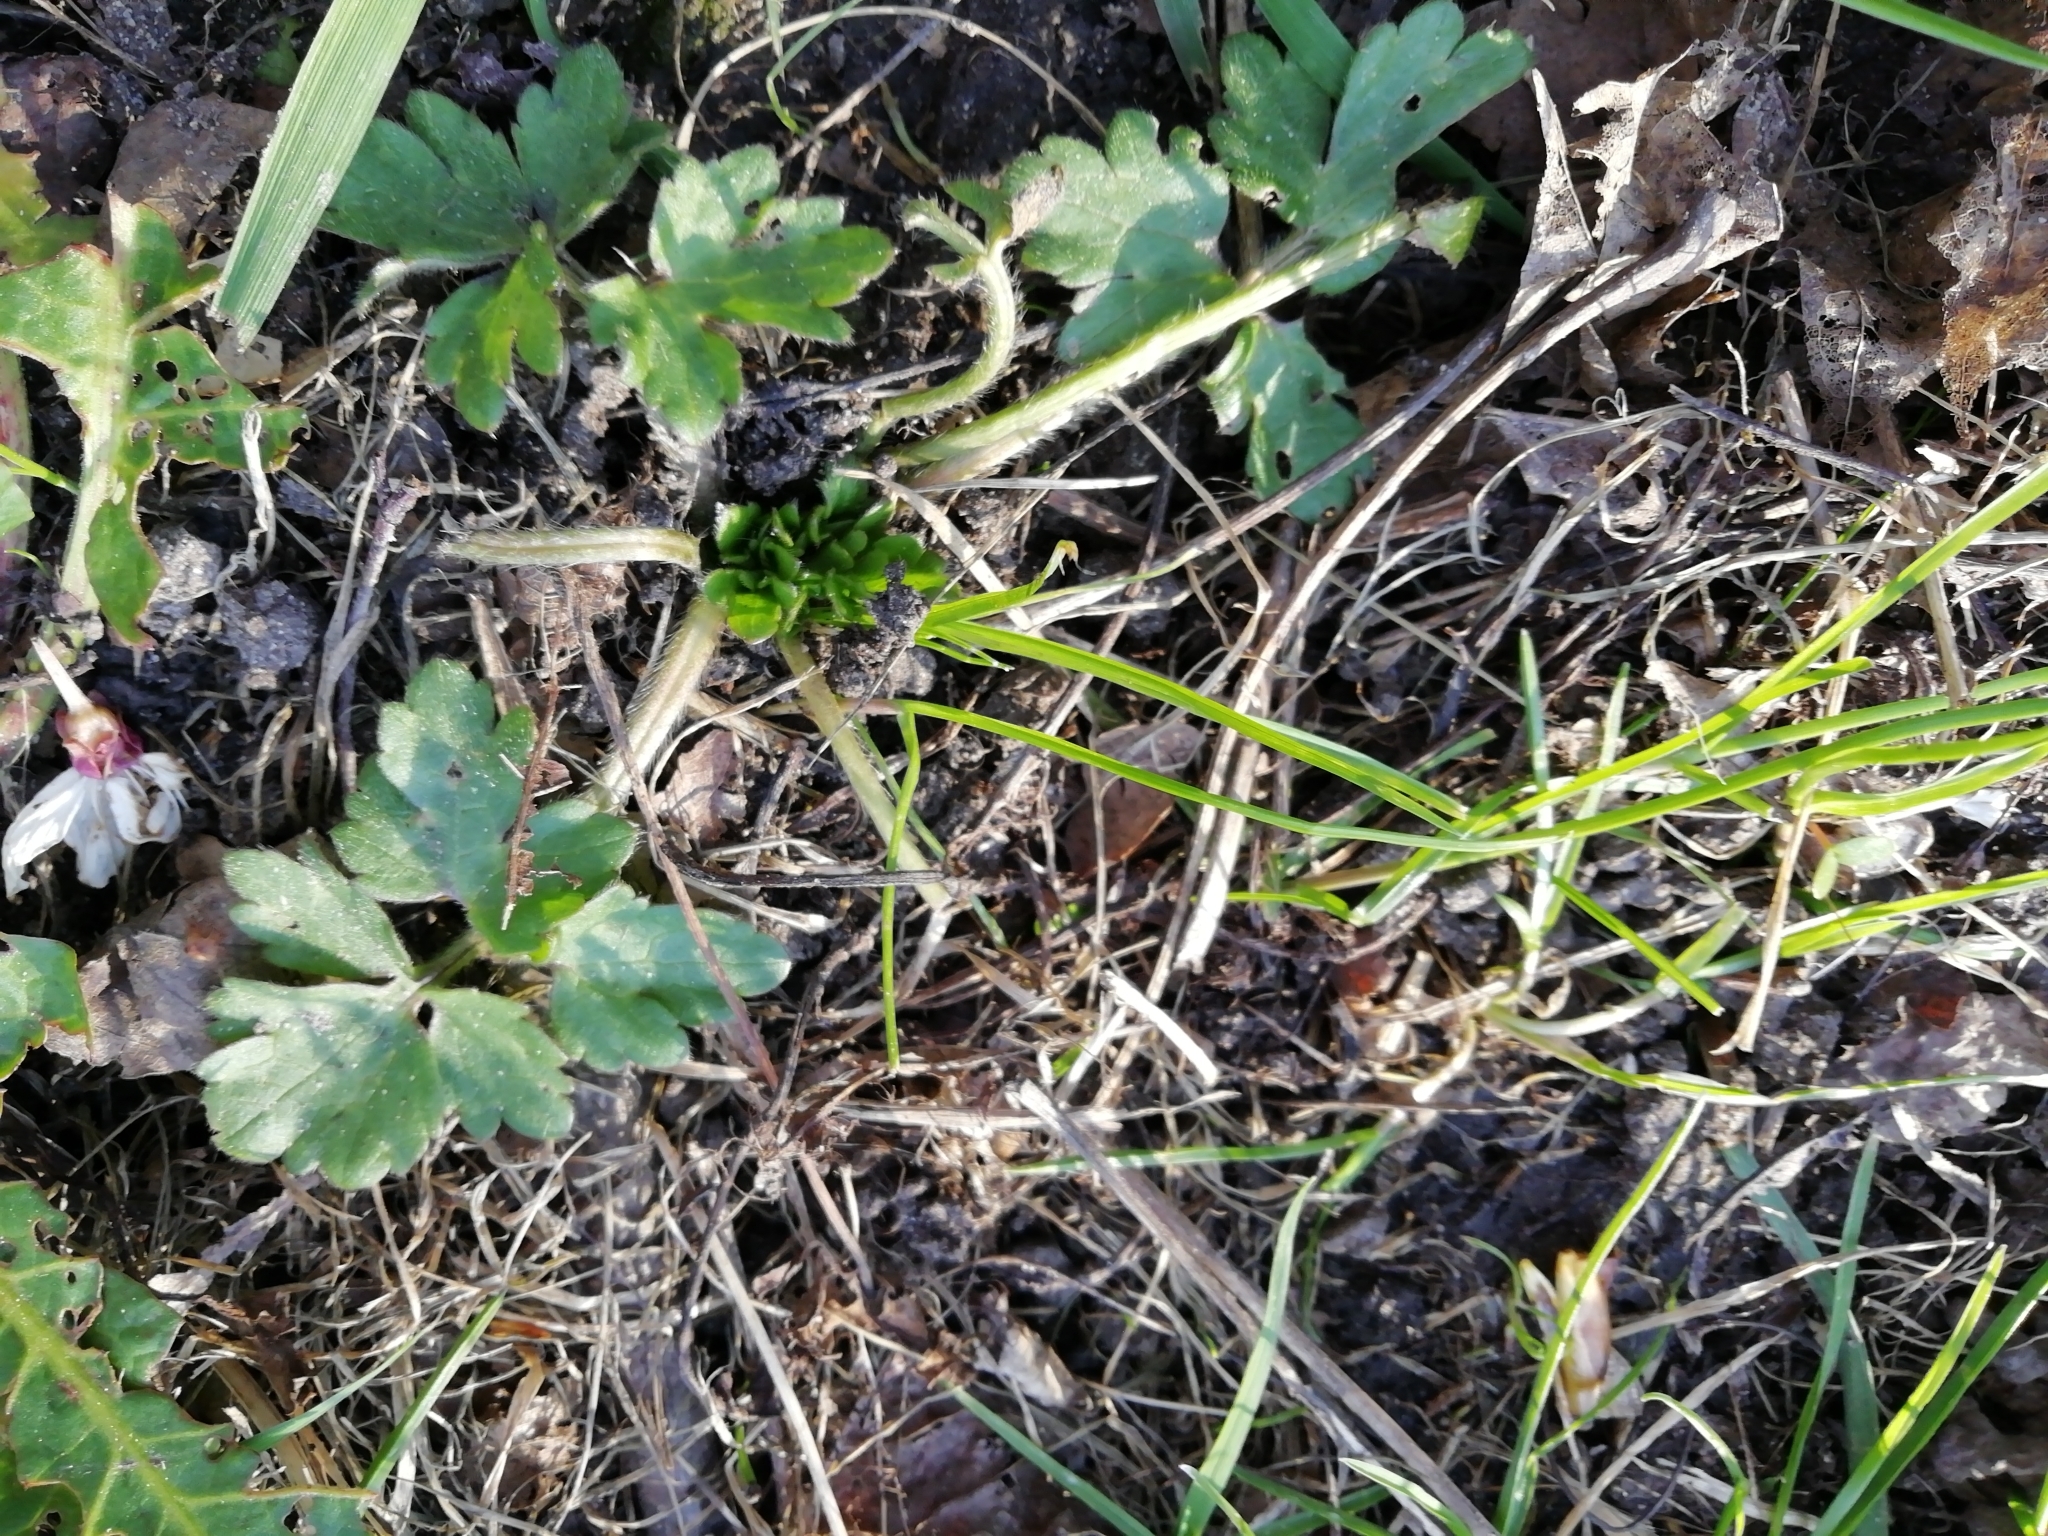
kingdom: Plantae
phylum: Tracheophyta
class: Magnoliopsida
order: Ranunculales
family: Ranunculaceae
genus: Ranunculus
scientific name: Ranunculus bulbosus
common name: Bulbous buttercup
